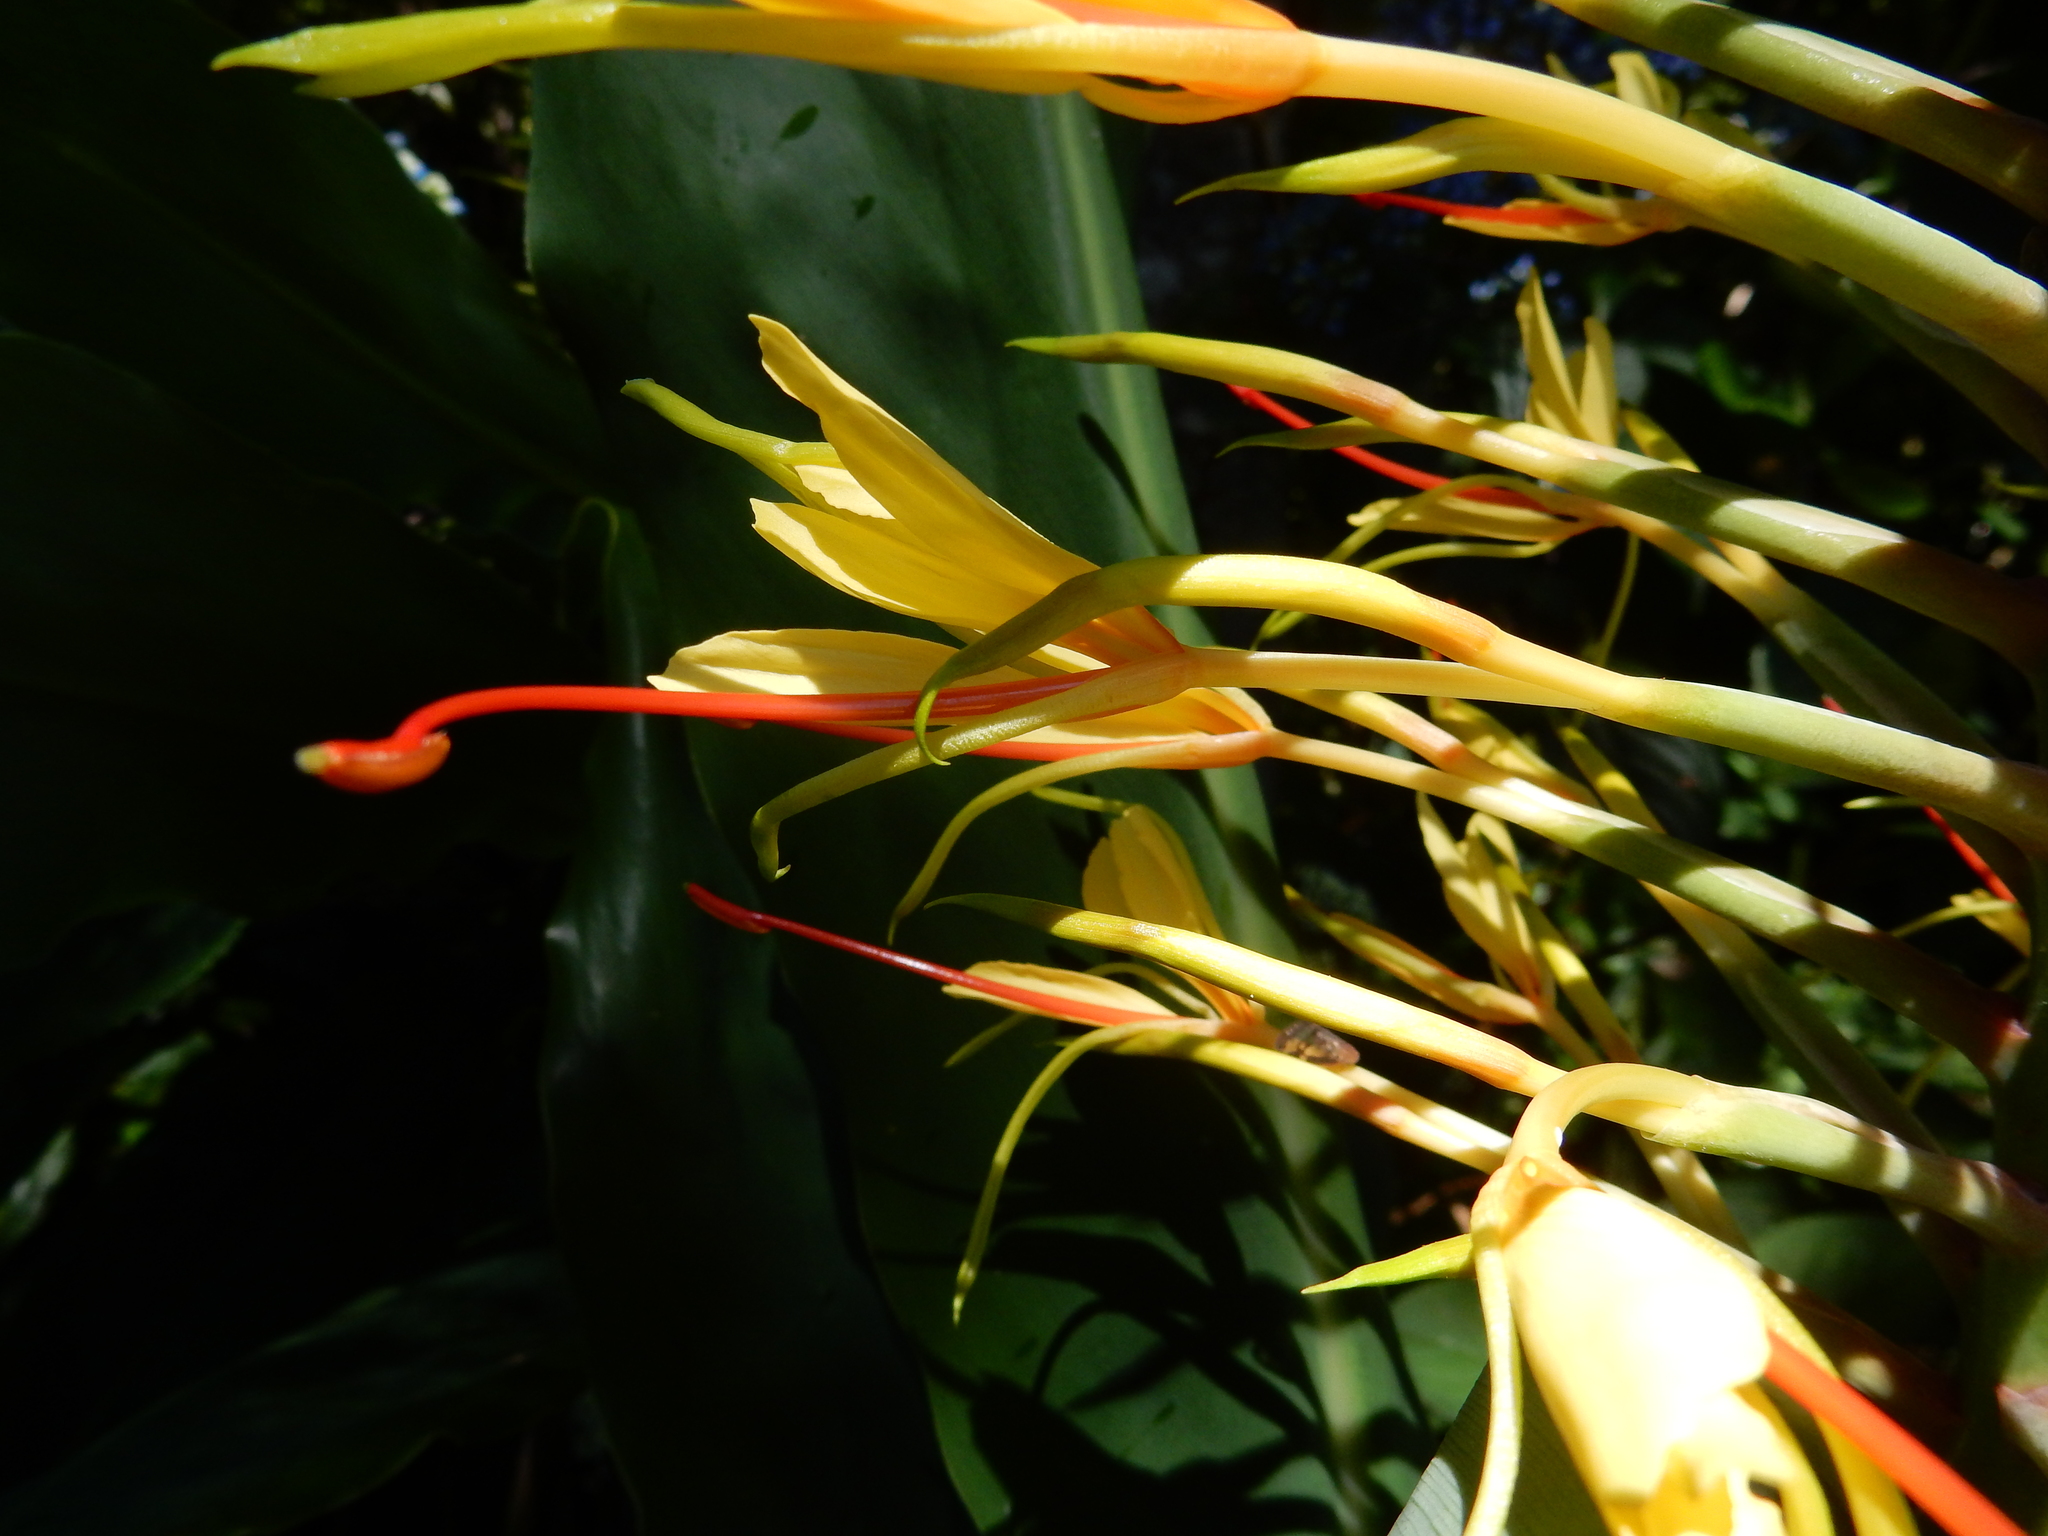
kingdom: Plantae
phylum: Tracheophyta
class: Liliopsida
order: Zingiberales
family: Zingiberaceae
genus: Hedychium
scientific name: Hedychium gardnerianum
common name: Himalayan ginger
